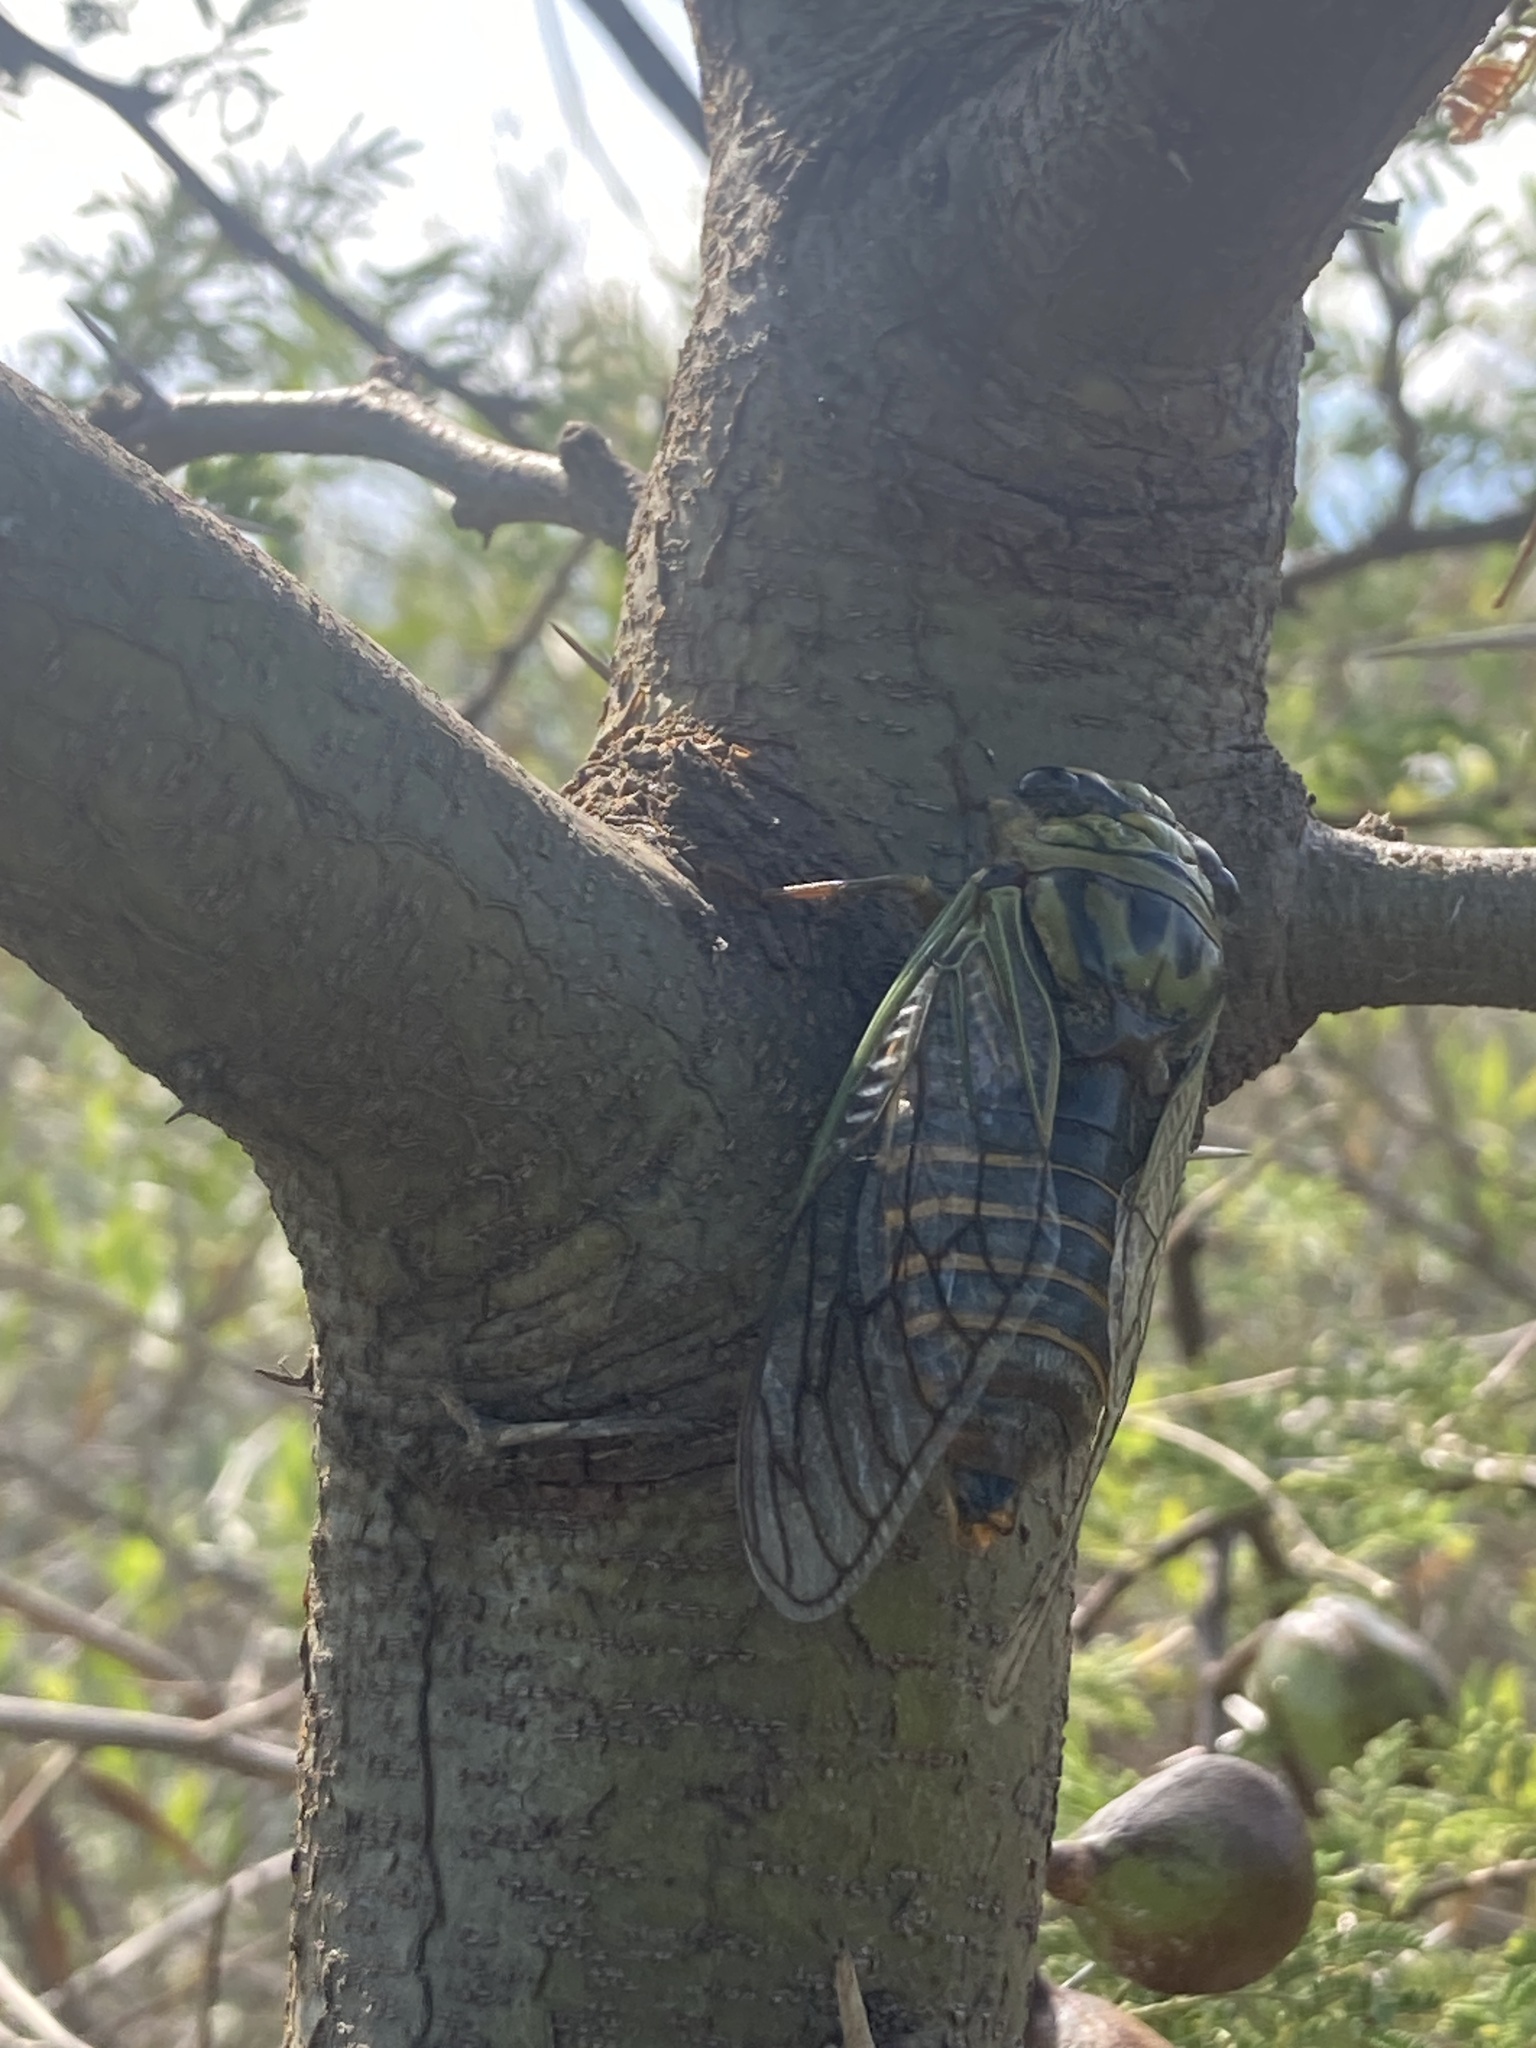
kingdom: Animalia
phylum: Arthropoda
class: Insecta
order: Hemiptera
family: Cicadidae
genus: Guyalna
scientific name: Guyalna bonaerensis
